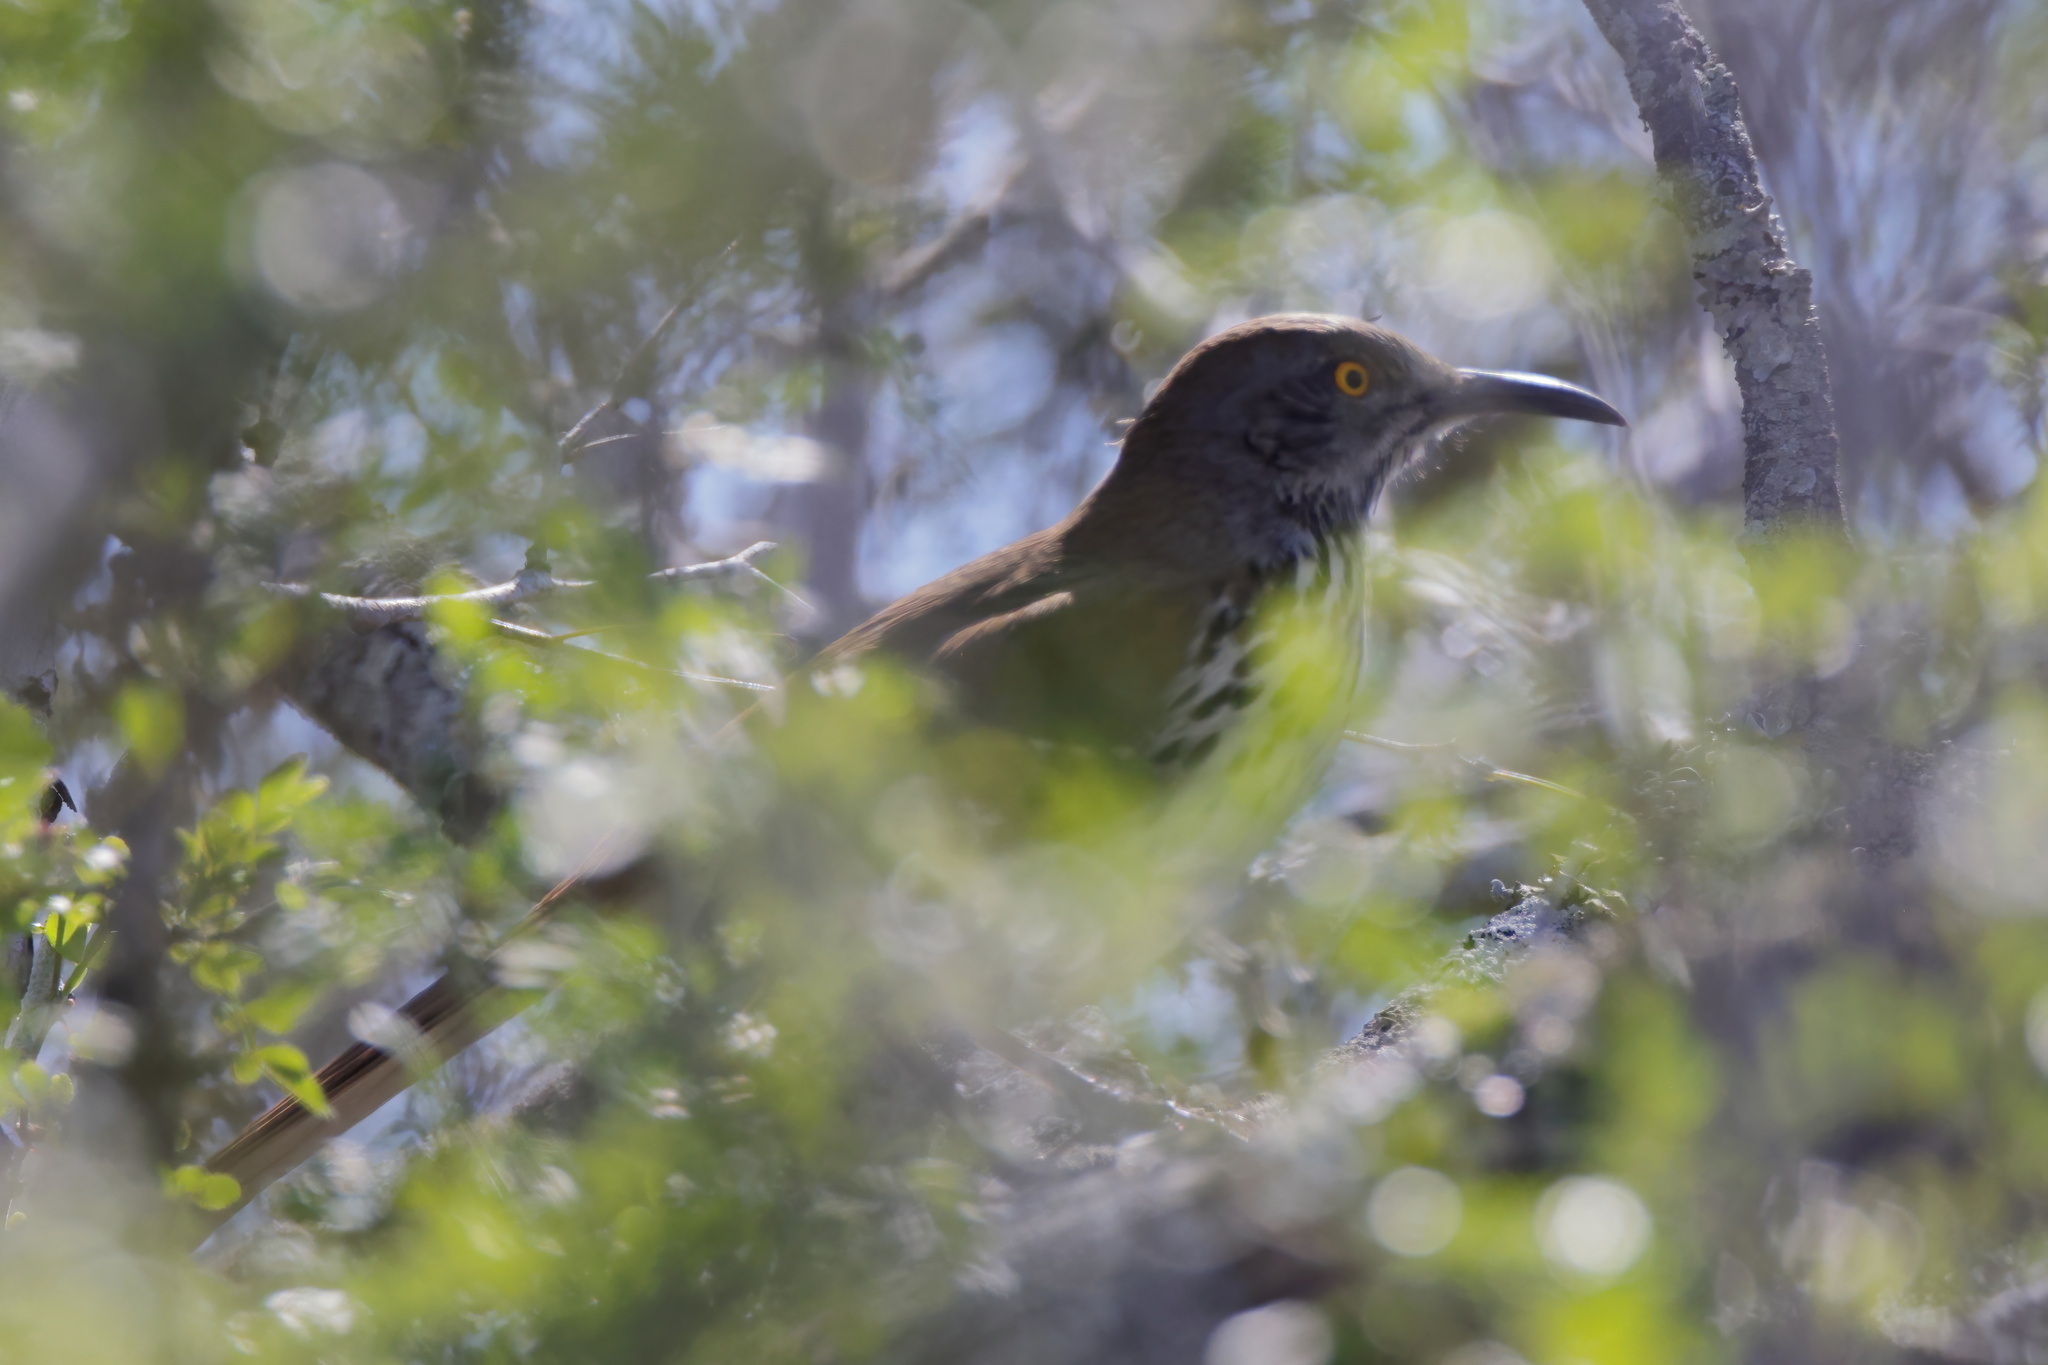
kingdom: Animalia
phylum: Chordata
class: Aves
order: Passeriformes
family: Mimidae
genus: Toxostoma
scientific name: Toxostoma longirostre
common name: Long-billed thrasher
